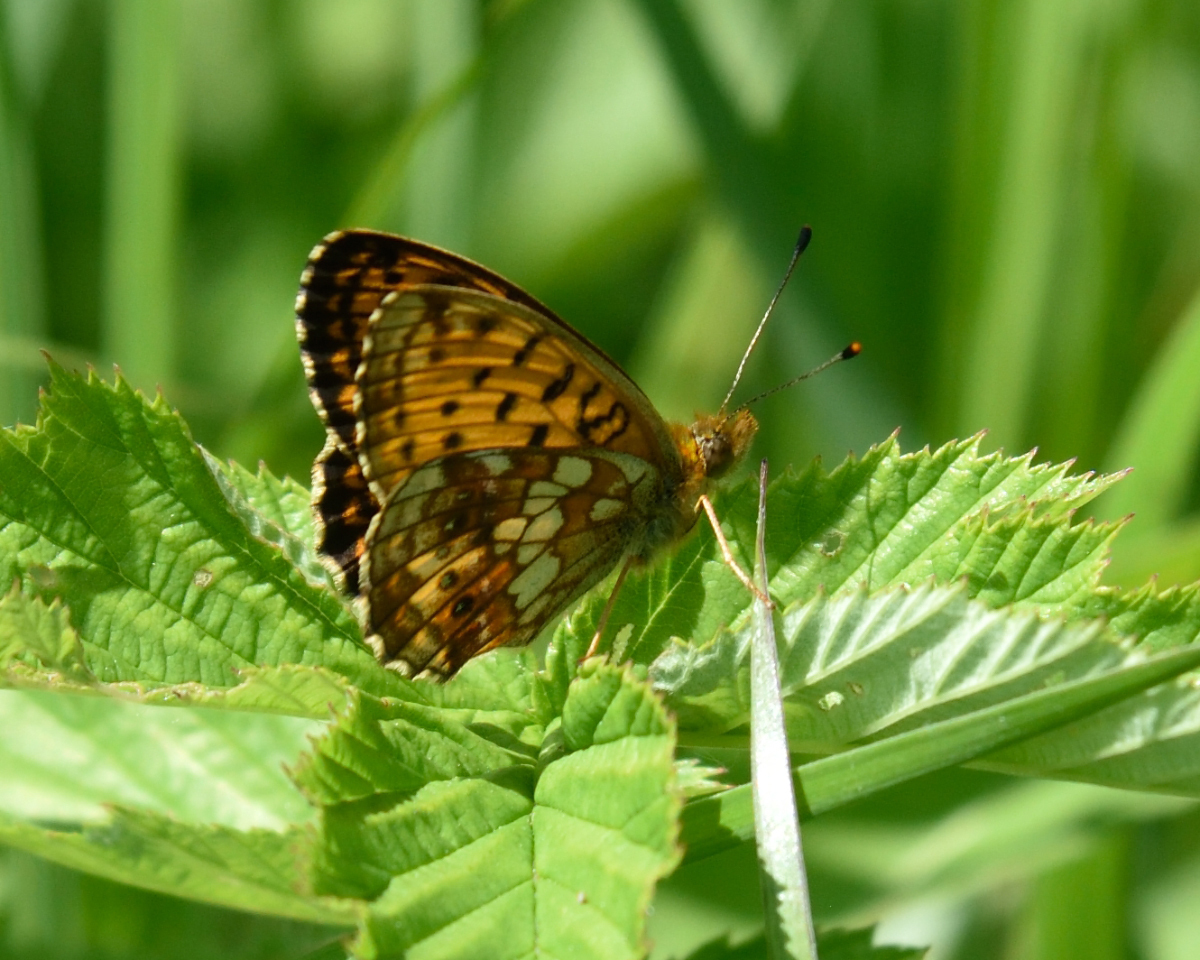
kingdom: Animalia
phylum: Arthropoda
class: Insecta
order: Lepidoptera
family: Nymphalidae
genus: Brenthis
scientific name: Brenthis ino
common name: Lesser marbled fritillary
